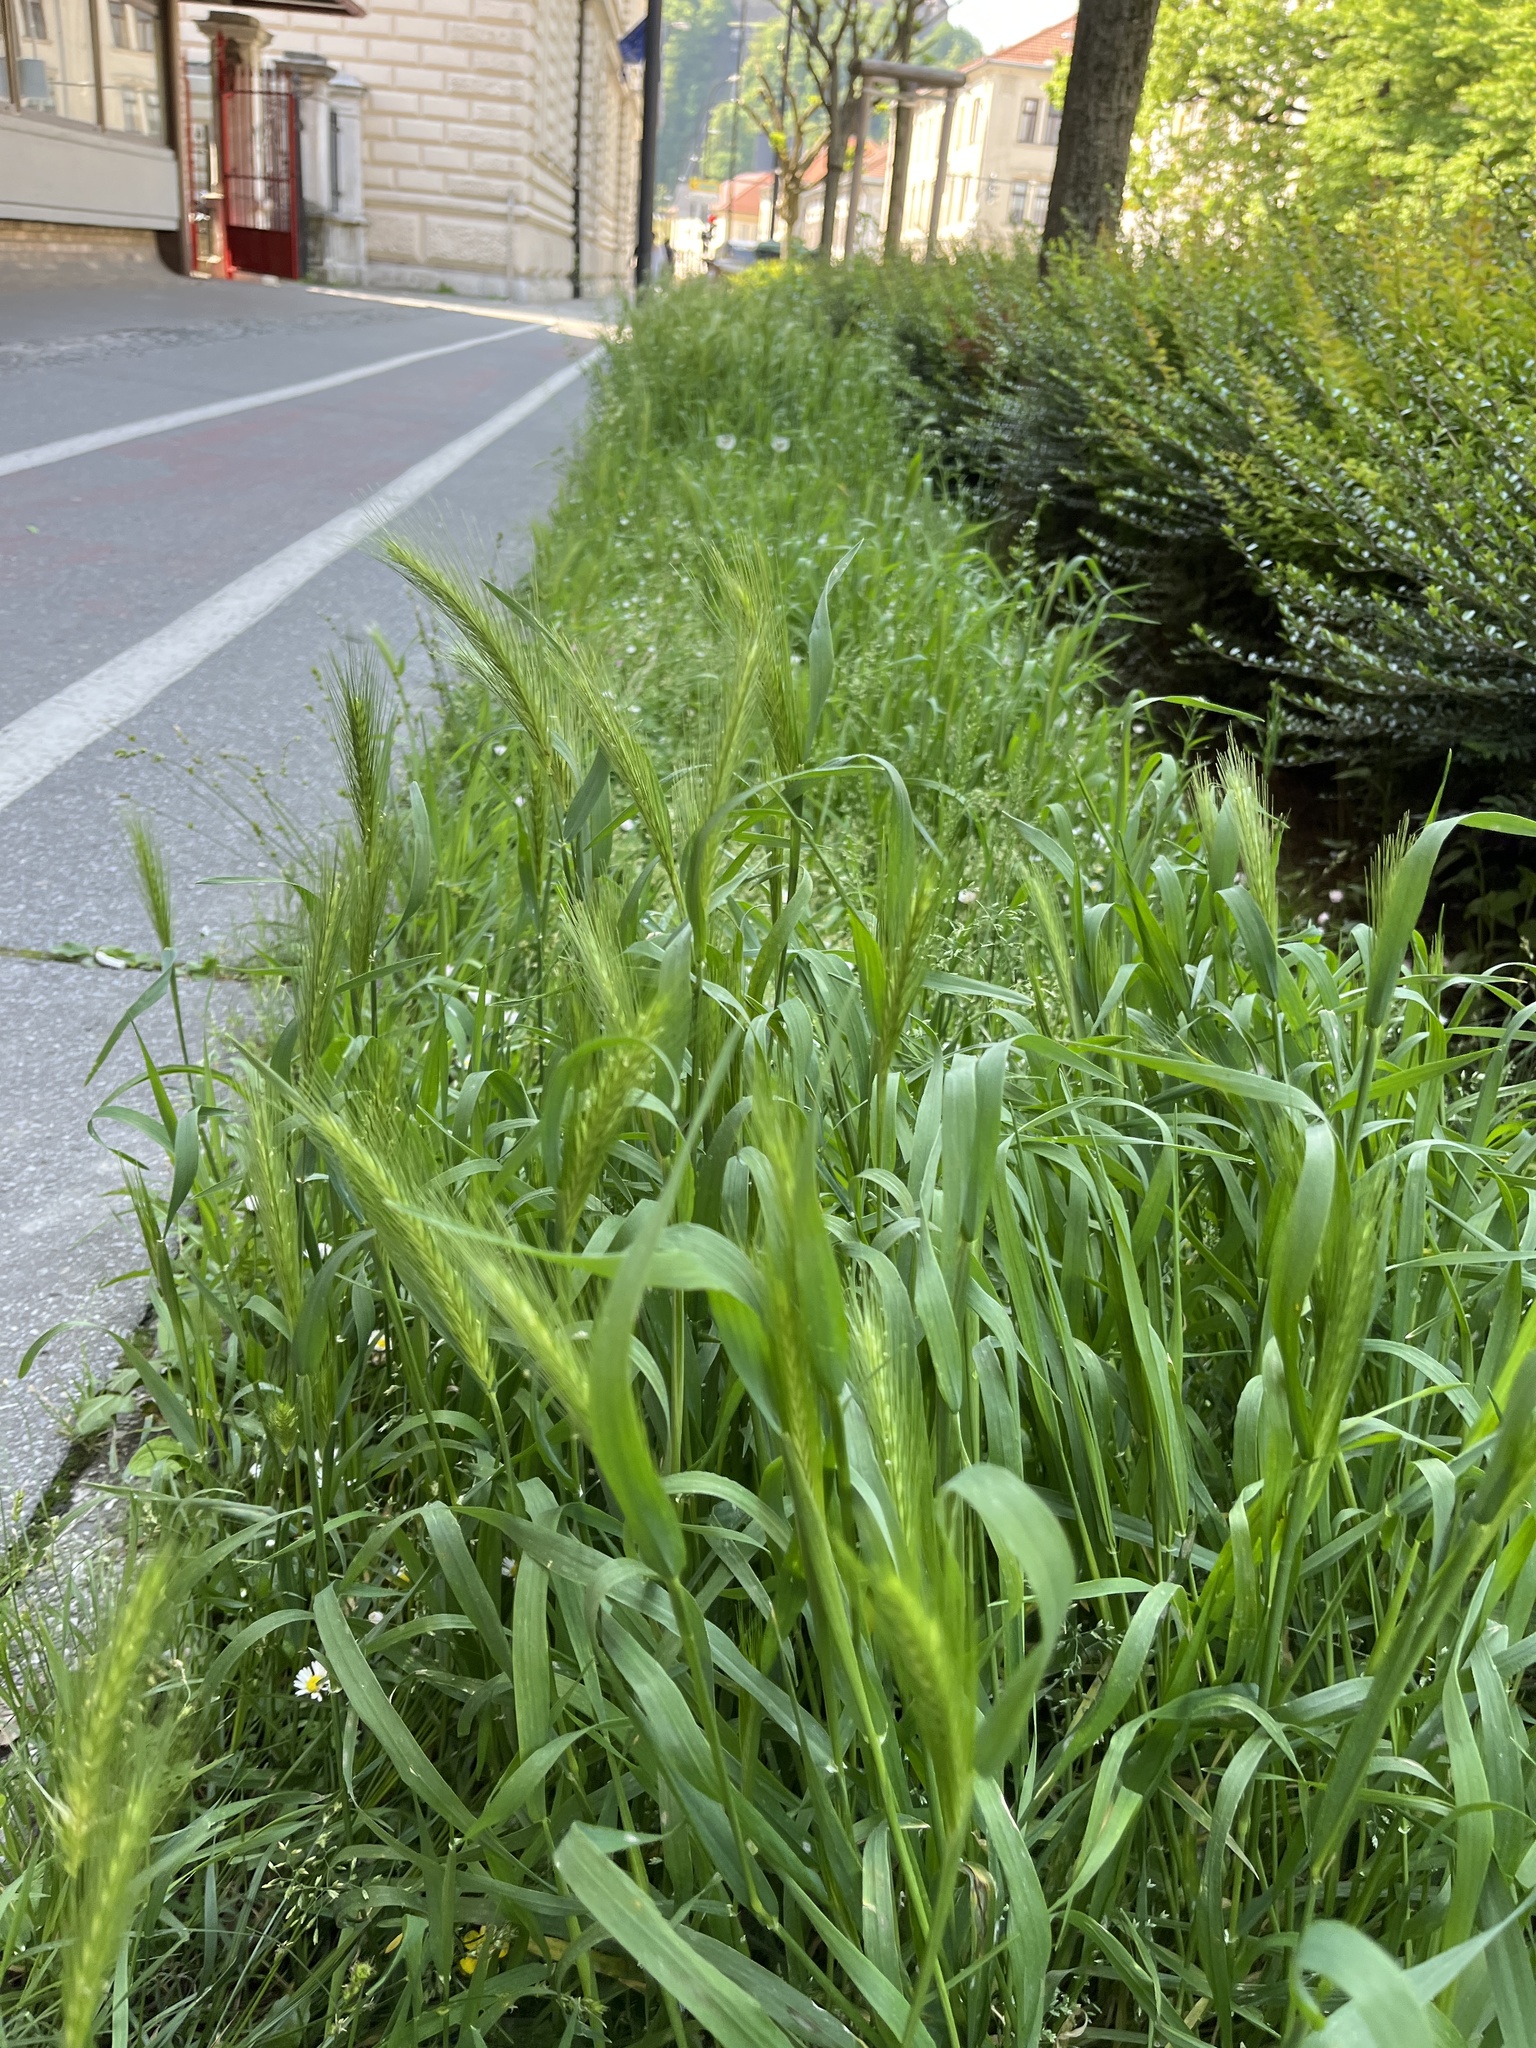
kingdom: Plantae
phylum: Tracheophyta
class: Liliopsida
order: Poales
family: Poaceae
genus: Hordeum
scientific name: Hordeum murinum
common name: Wall barley
